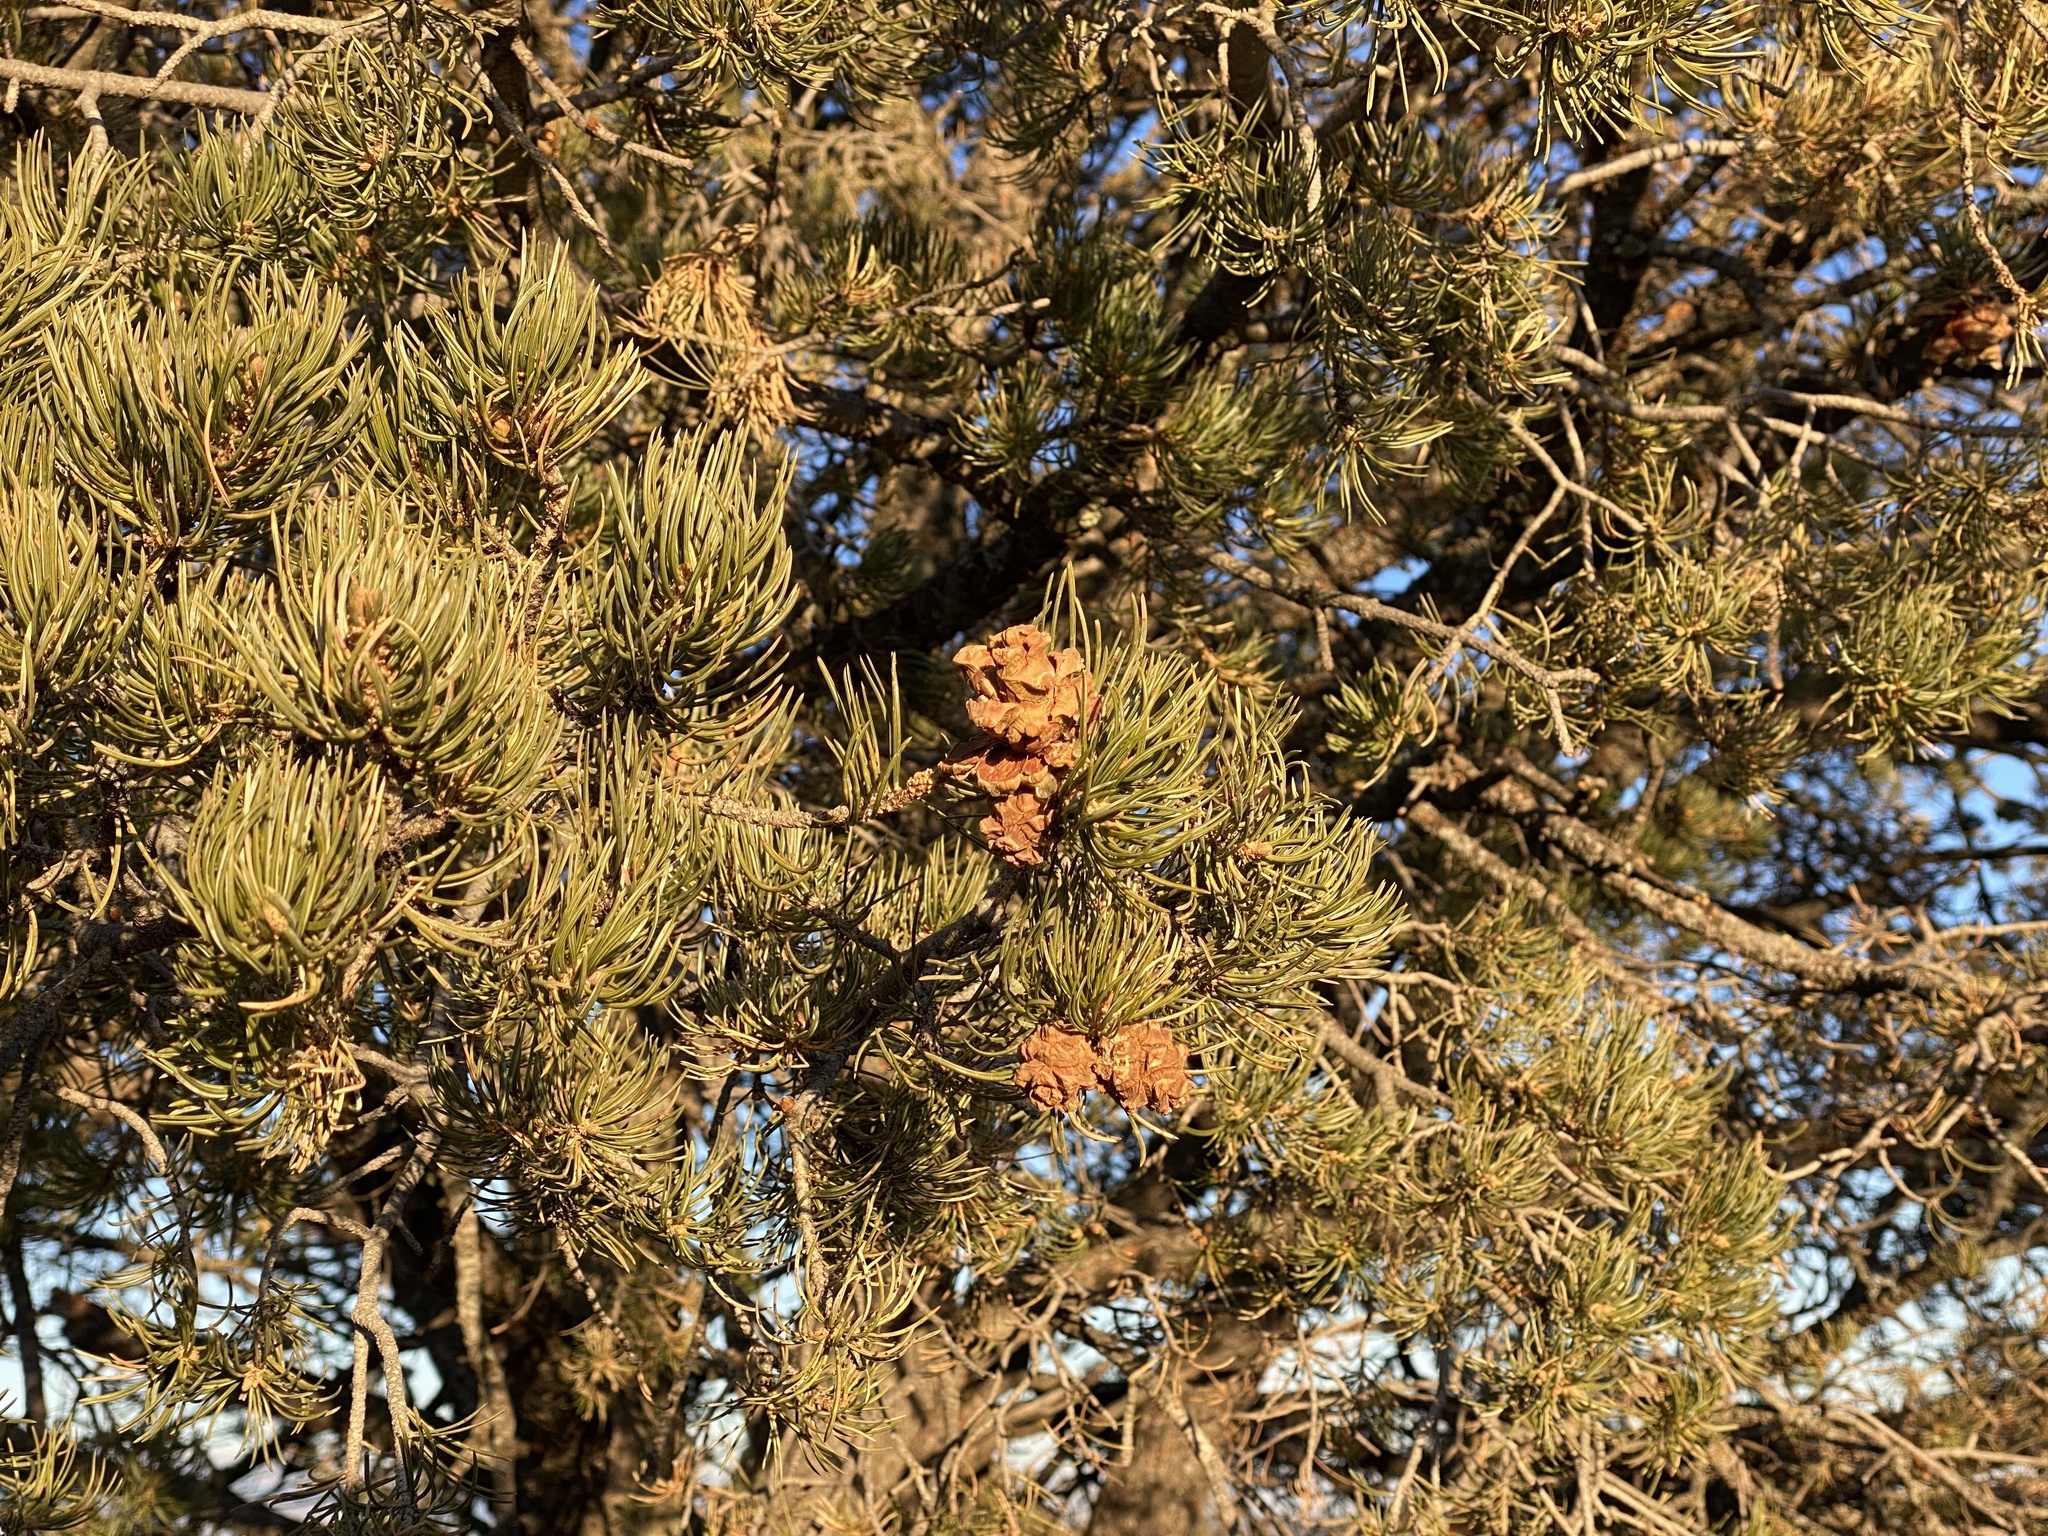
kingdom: Plantae
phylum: Tracheophyta
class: Pinopsida
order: Pinales
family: Pinaceae
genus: Pinus
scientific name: Pinus edulis
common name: Colorado pinyon
